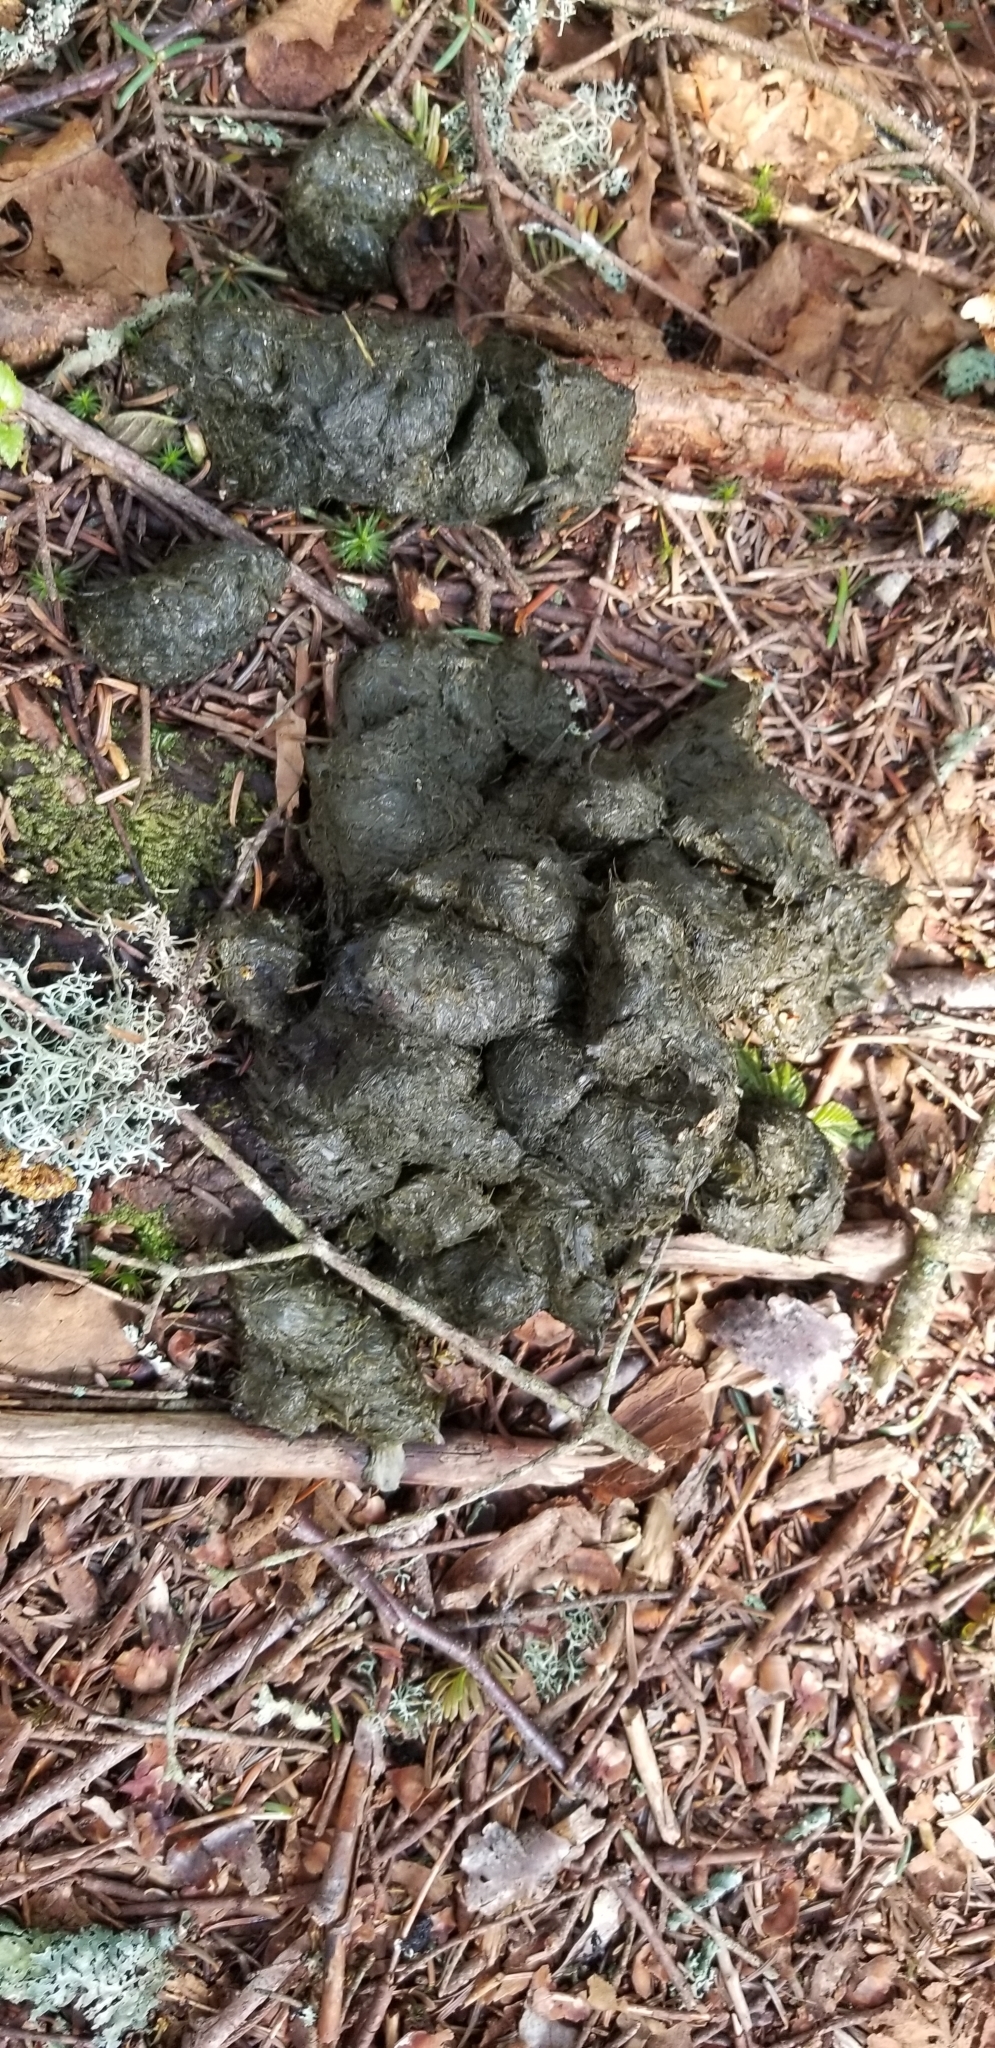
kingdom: Animalia
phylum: Chordata
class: Mammalia
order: Carnivora
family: Ursidae
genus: Ursus
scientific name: Ursus americanus
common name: American black bear
